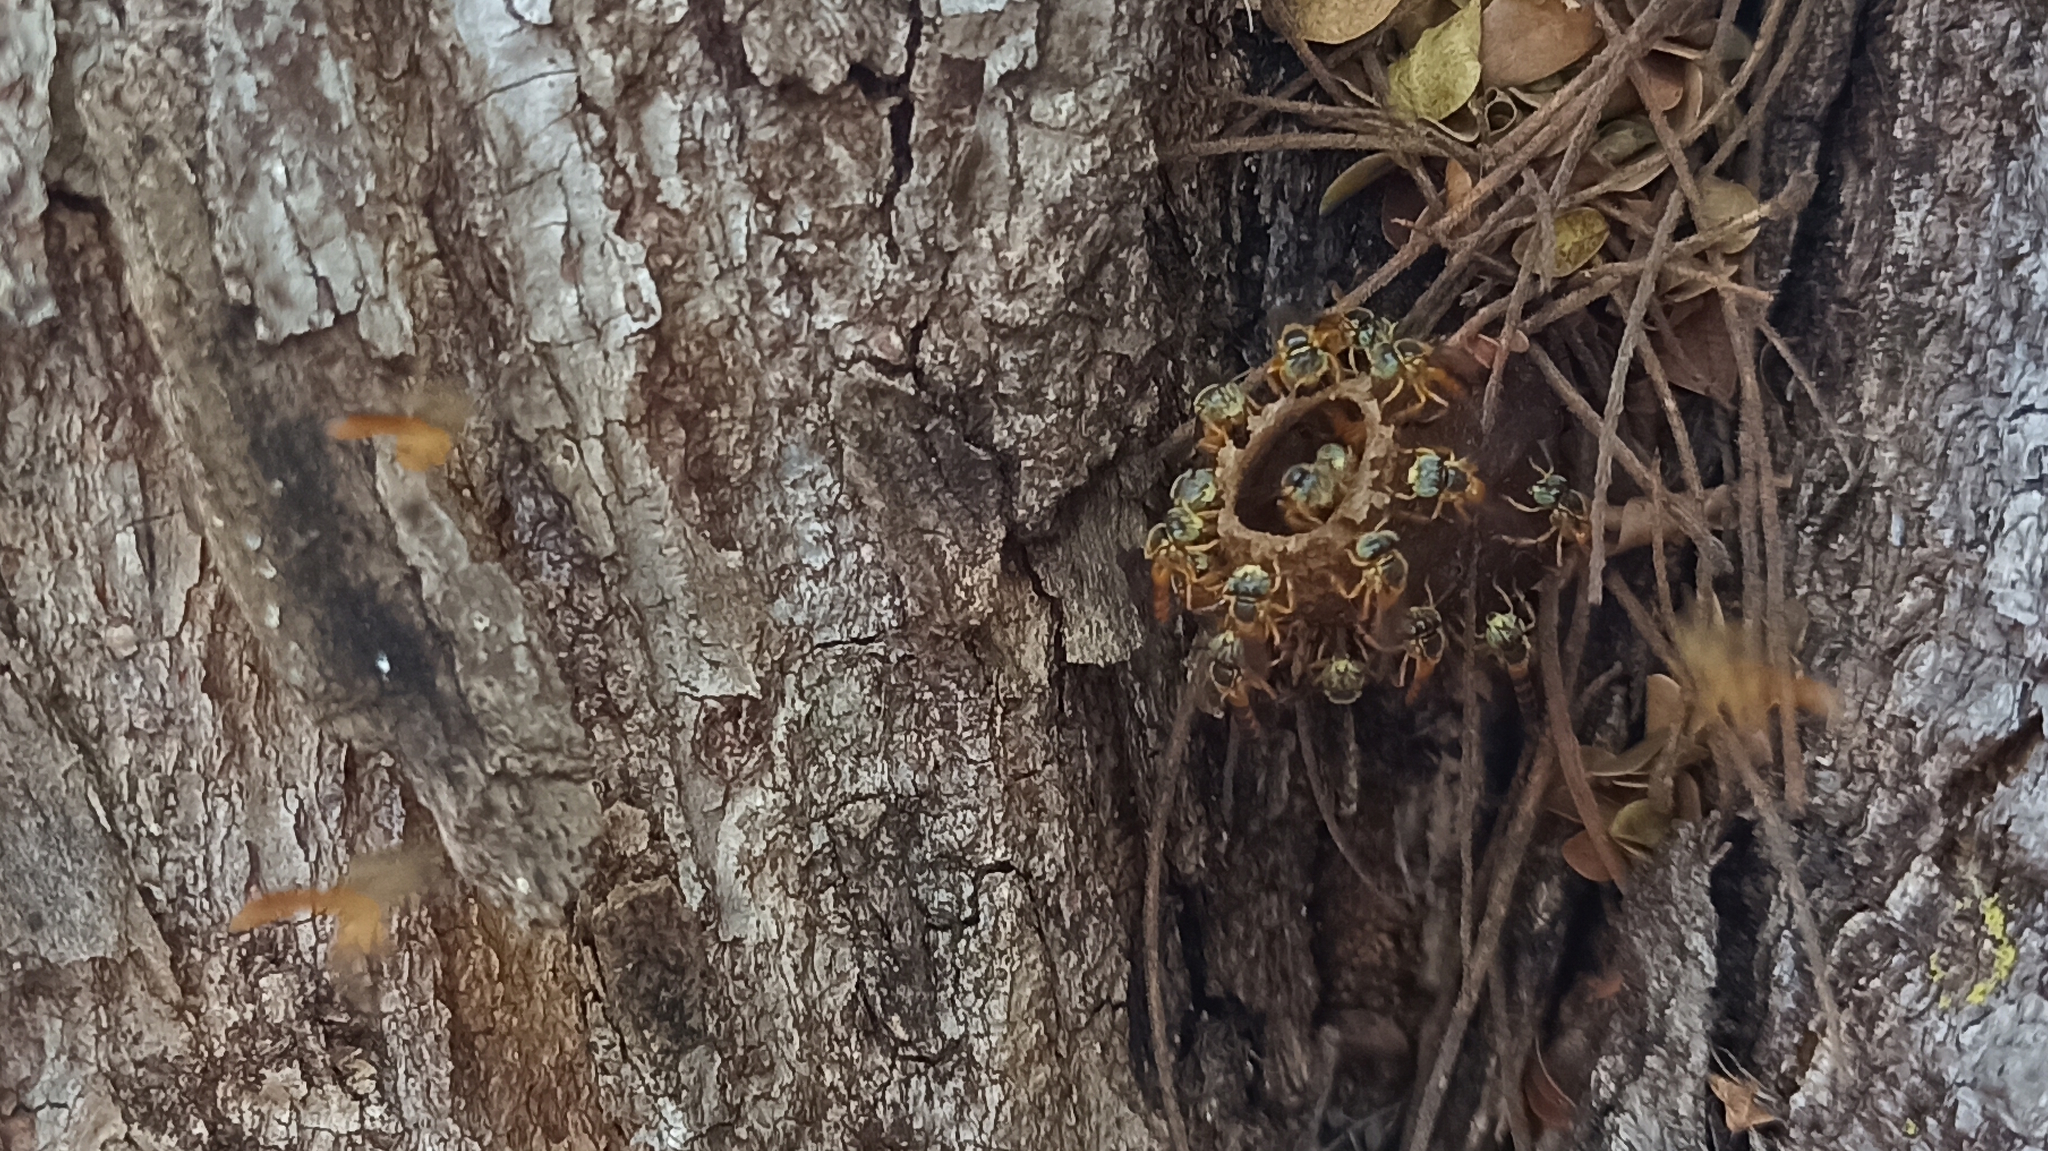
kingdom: Animalia
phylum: Arthropoda
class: Insecta
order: Hymenoptera
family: Apidae
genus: Tetragonisca
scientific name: Tetragonisca angustula
